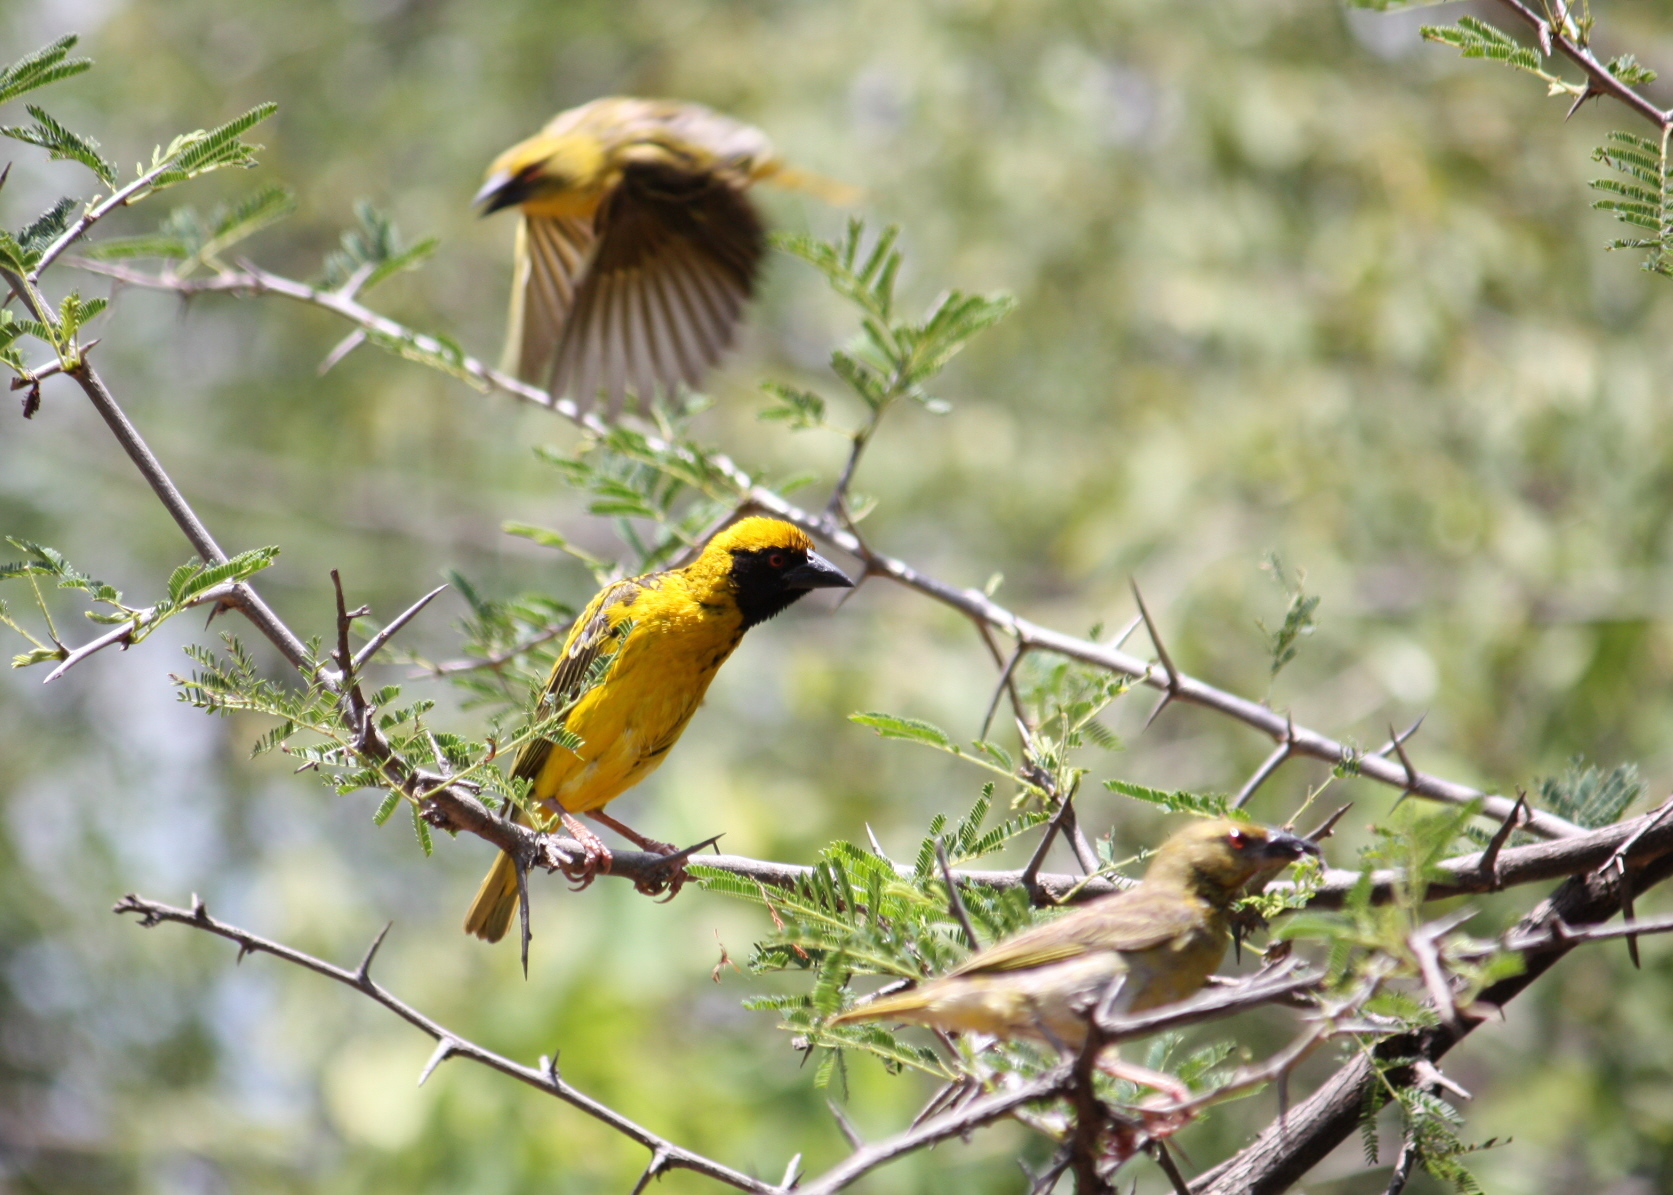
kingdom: Animalia
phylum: Chordata
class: Aves
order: Passeriformes
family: Ploceidae
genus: Ploceus
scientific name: Ploceus cucullatus
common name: Village weaver
